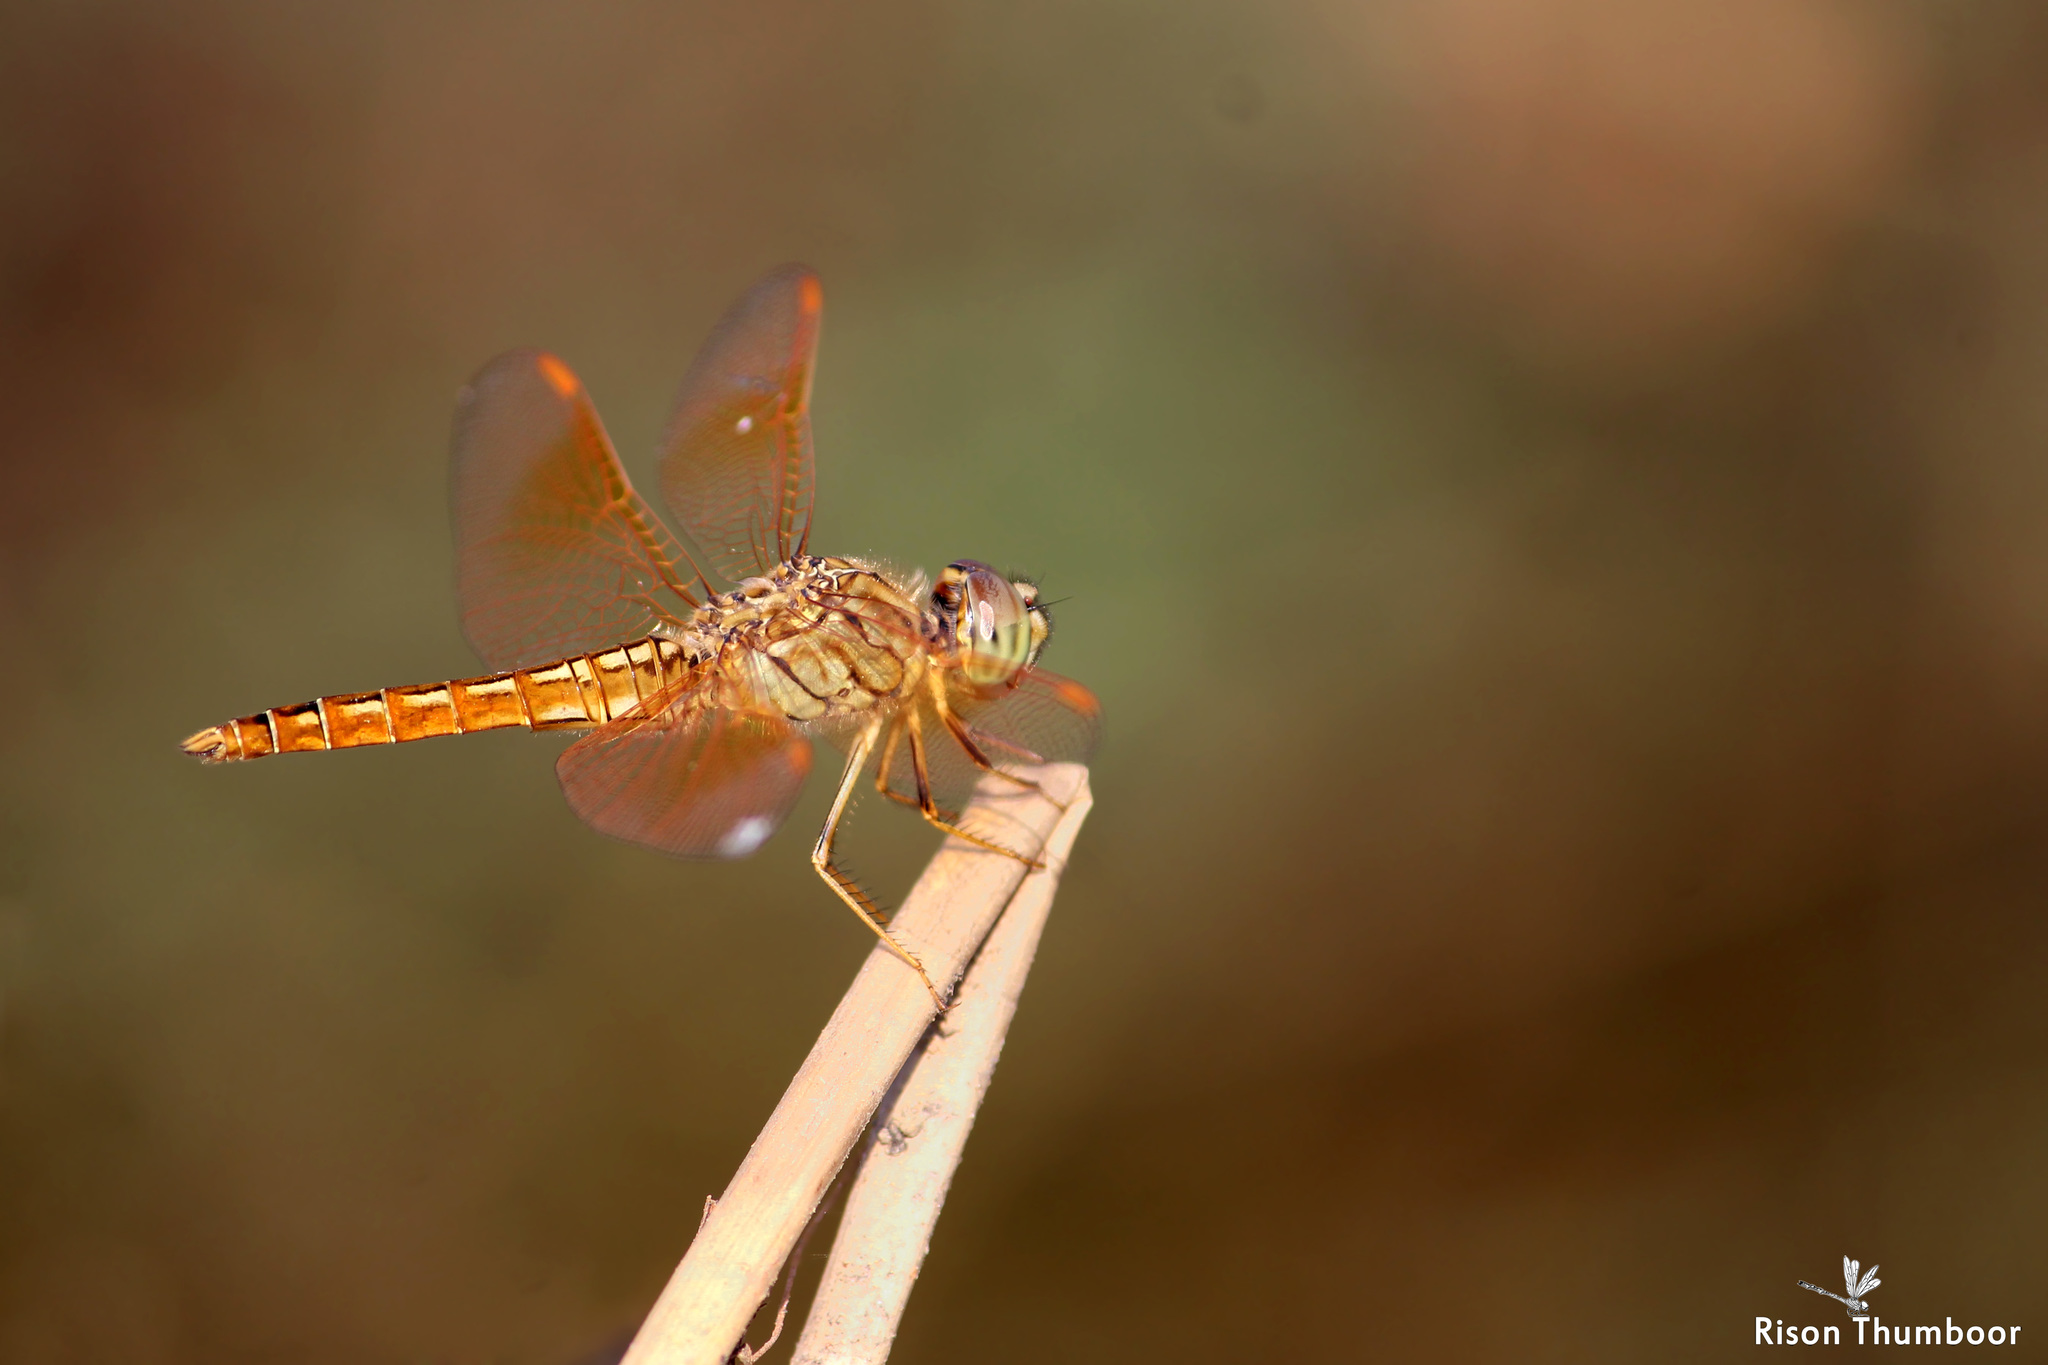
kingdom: Animalia
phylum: Arthropoda
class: Insecta
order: Odonata
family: Libellulidae
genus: Brachythemis
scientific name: Brachythemis contaminata
